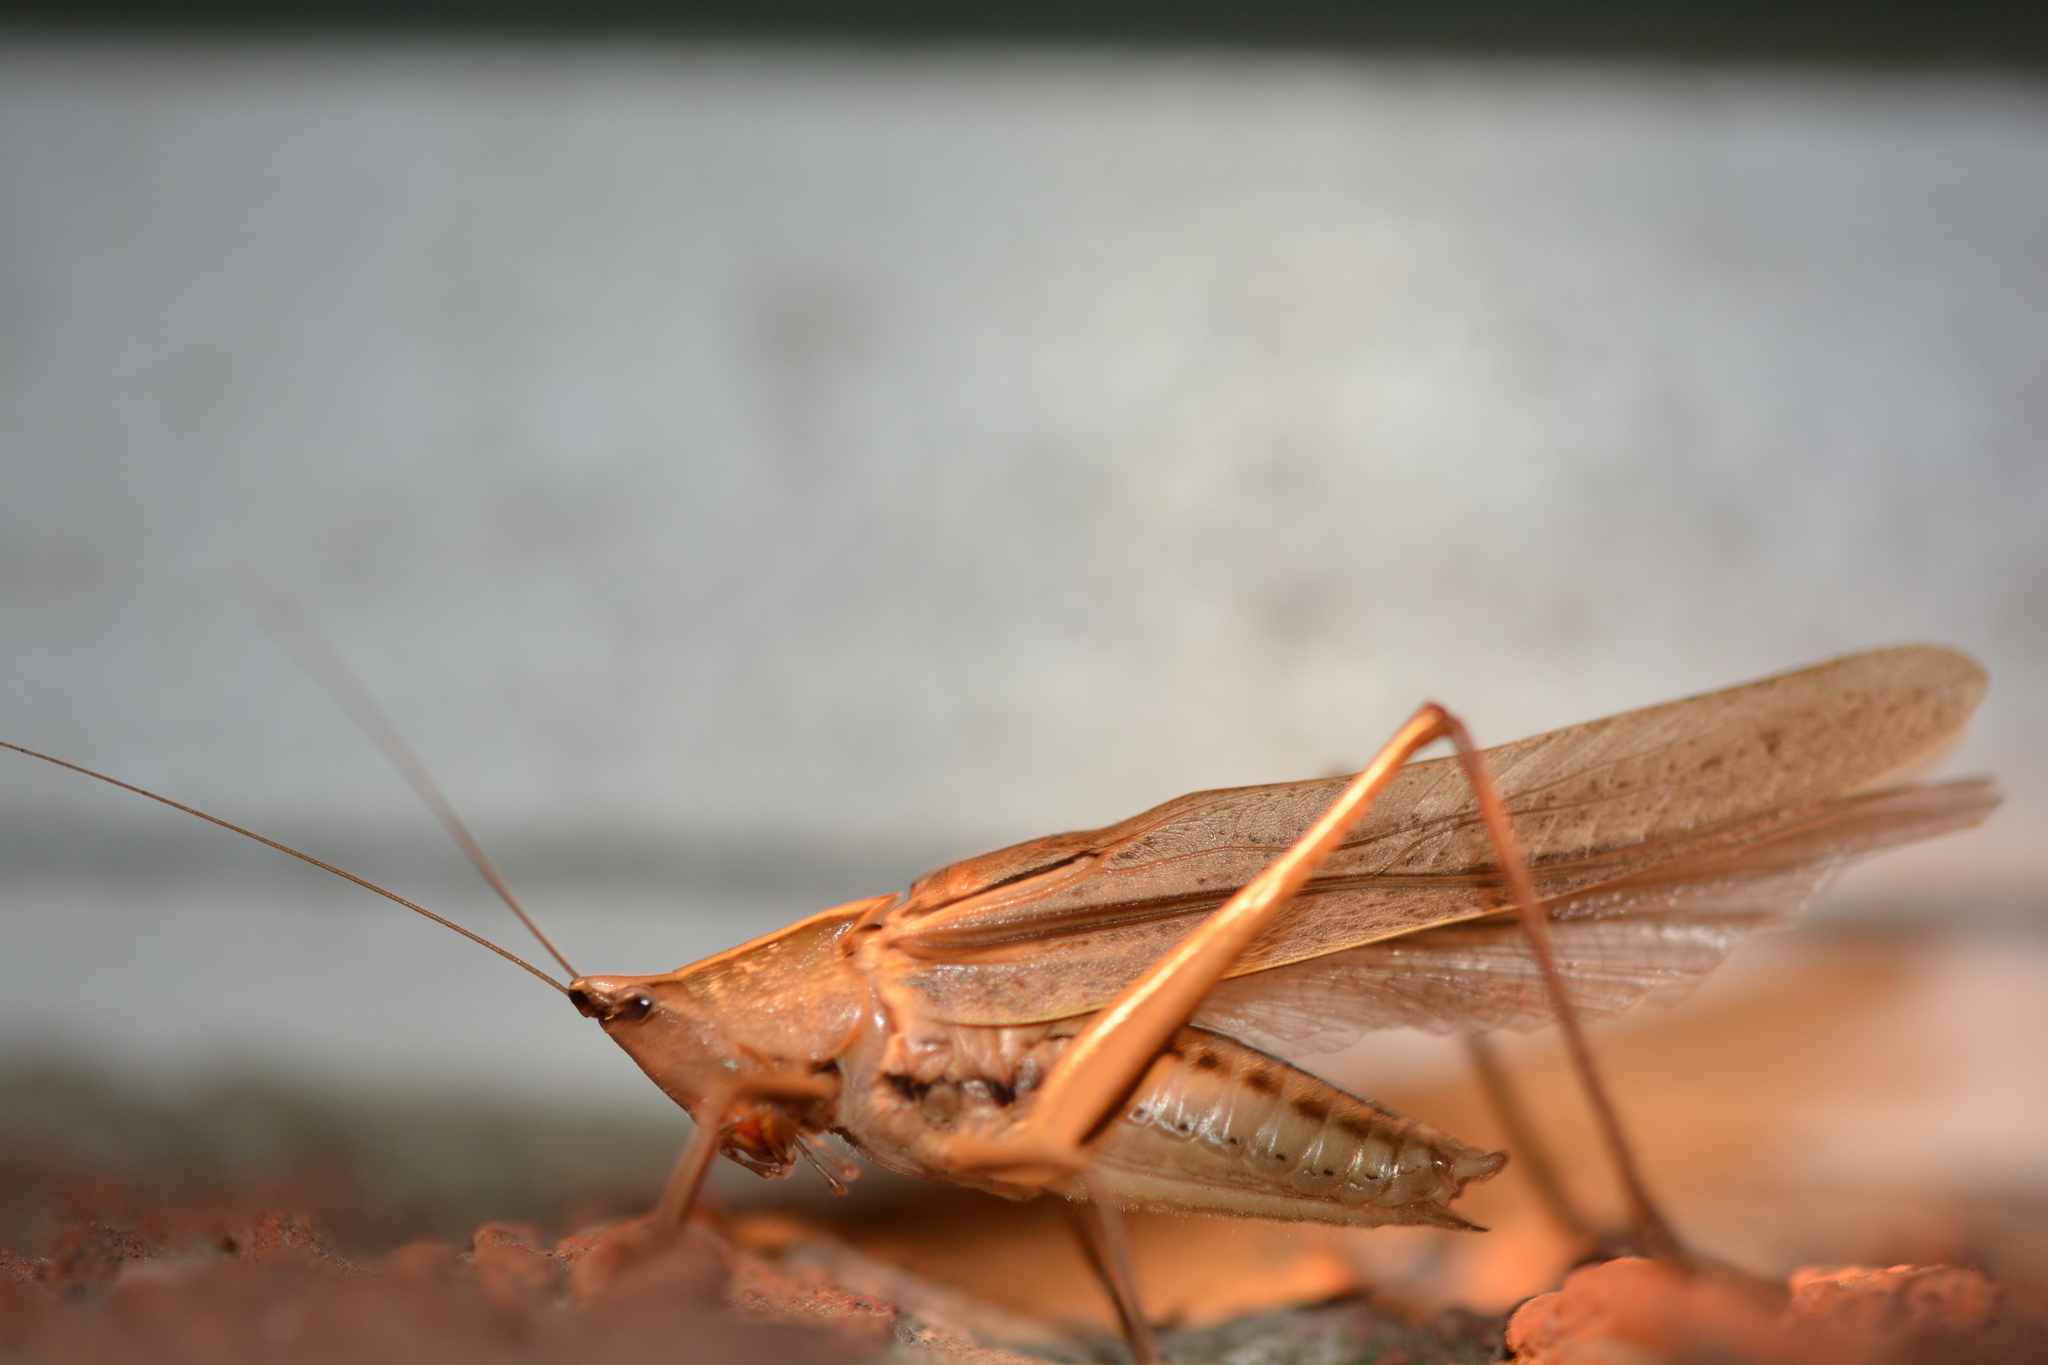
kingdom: Animalia
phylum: Arthropoda
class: Insecta
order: Orthoptera
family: Tettigoniidae
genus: Neoconocephalus
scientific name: Neoconocephalus triops
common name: Broad-tipped conehead
